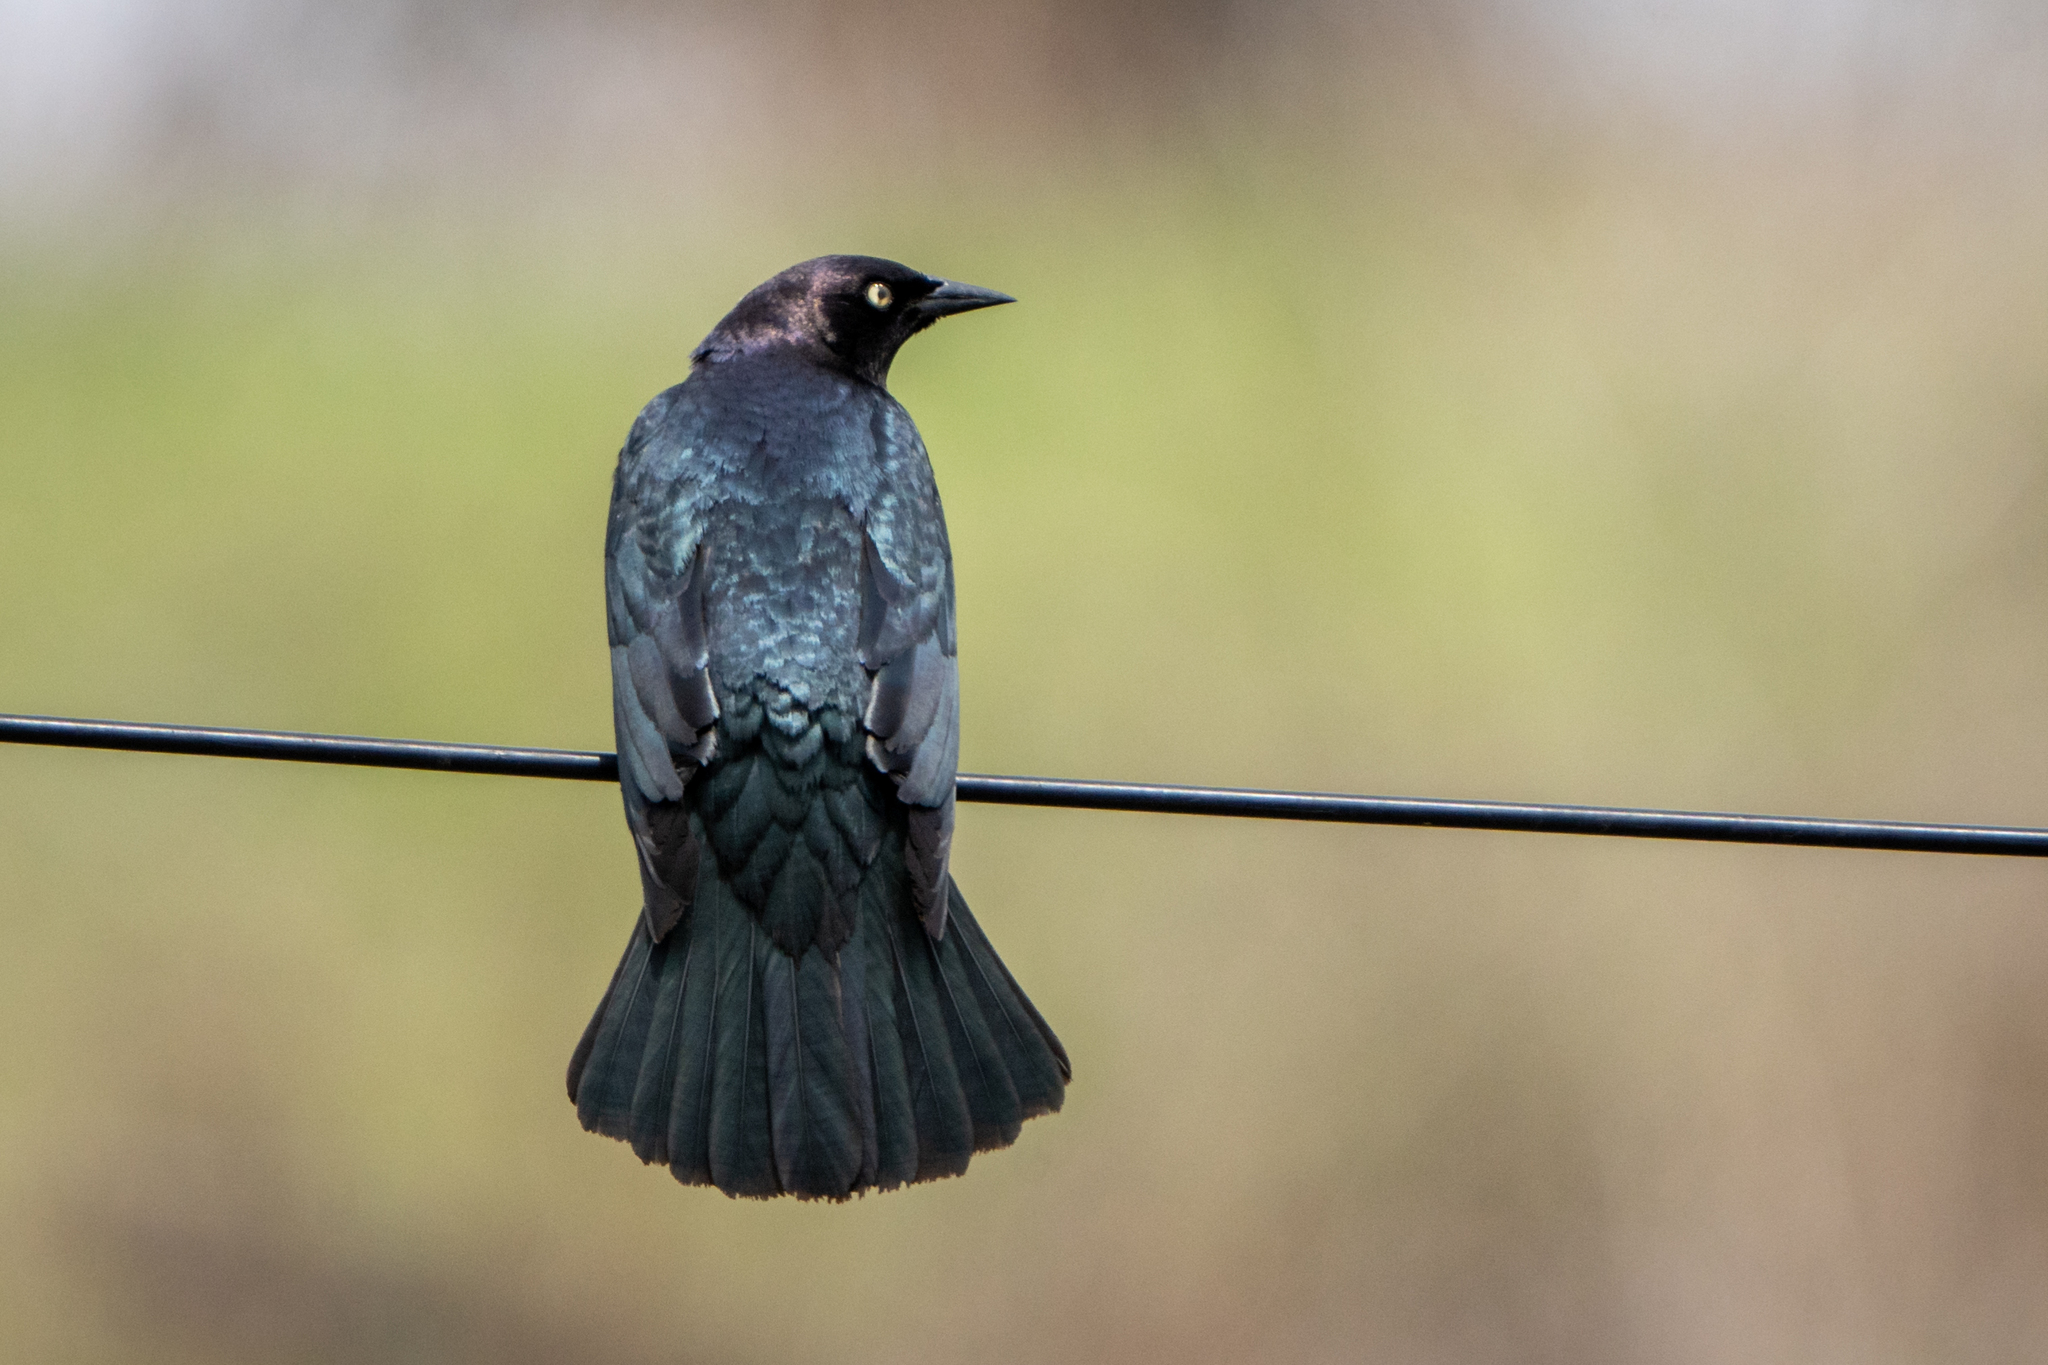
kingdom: Animalia
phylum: Chordata
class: Aves
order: Passeriformes
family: Icteridae
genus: Euphagus
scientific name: Euphagus cyanocephalus
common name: Brewer's blackbird
